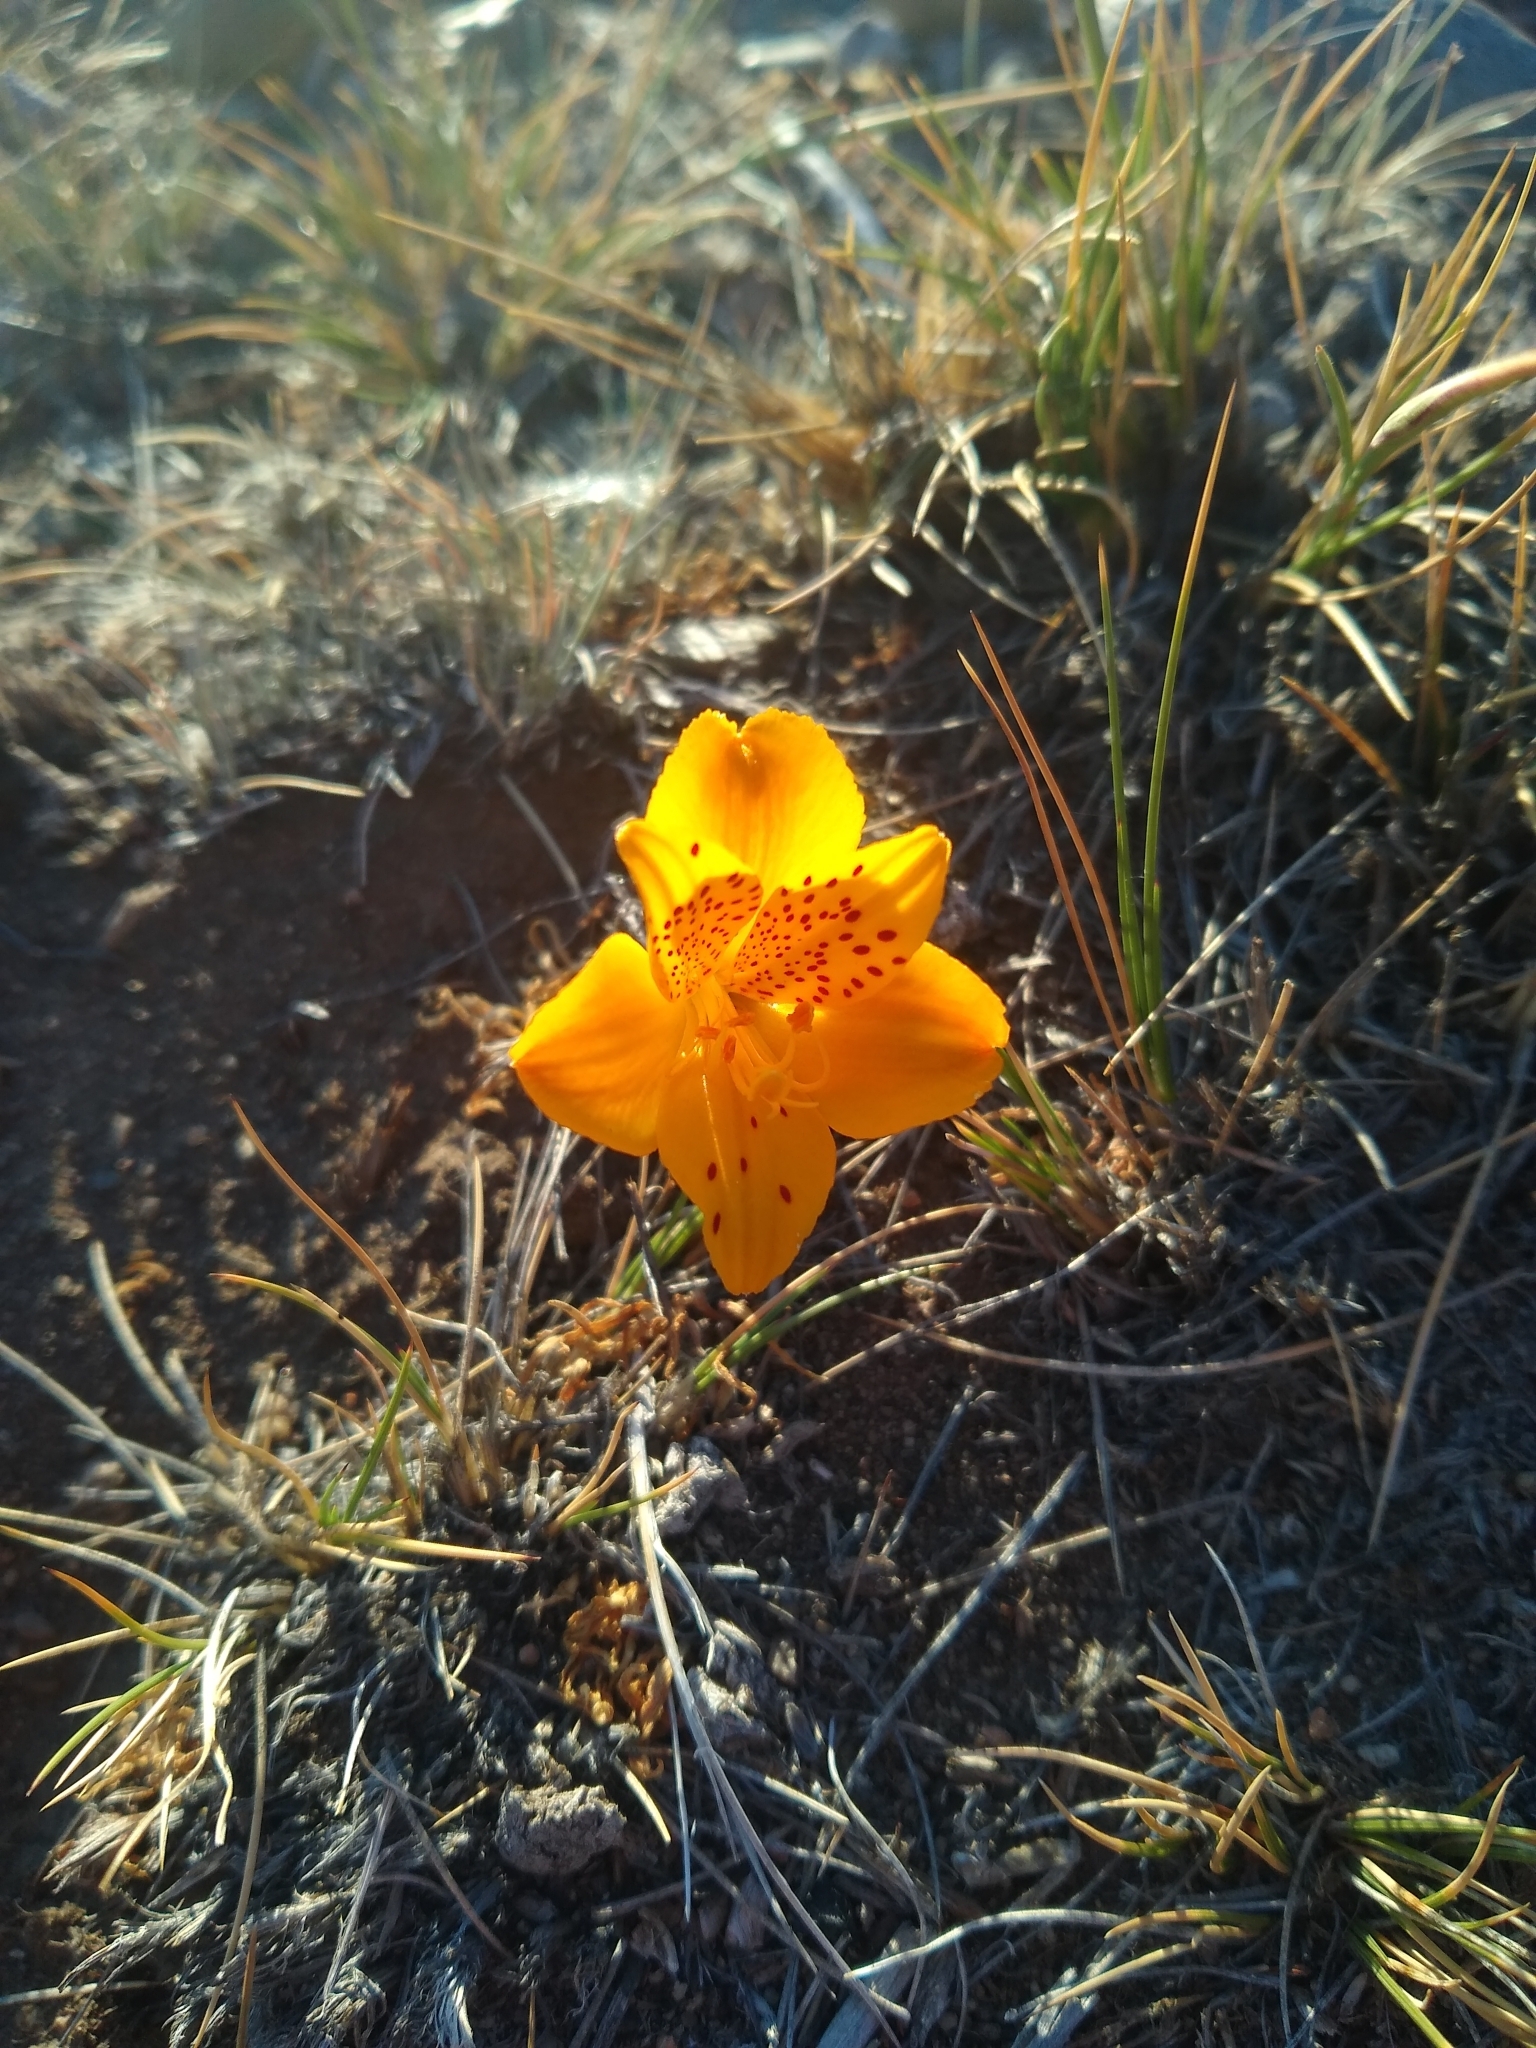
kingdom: Plantae
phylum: Tracheophyta
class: Liliopsida
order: Liliales
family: Alstroemeriaceae
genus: Alstroemeria
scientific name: Alstroemeria esteparica
